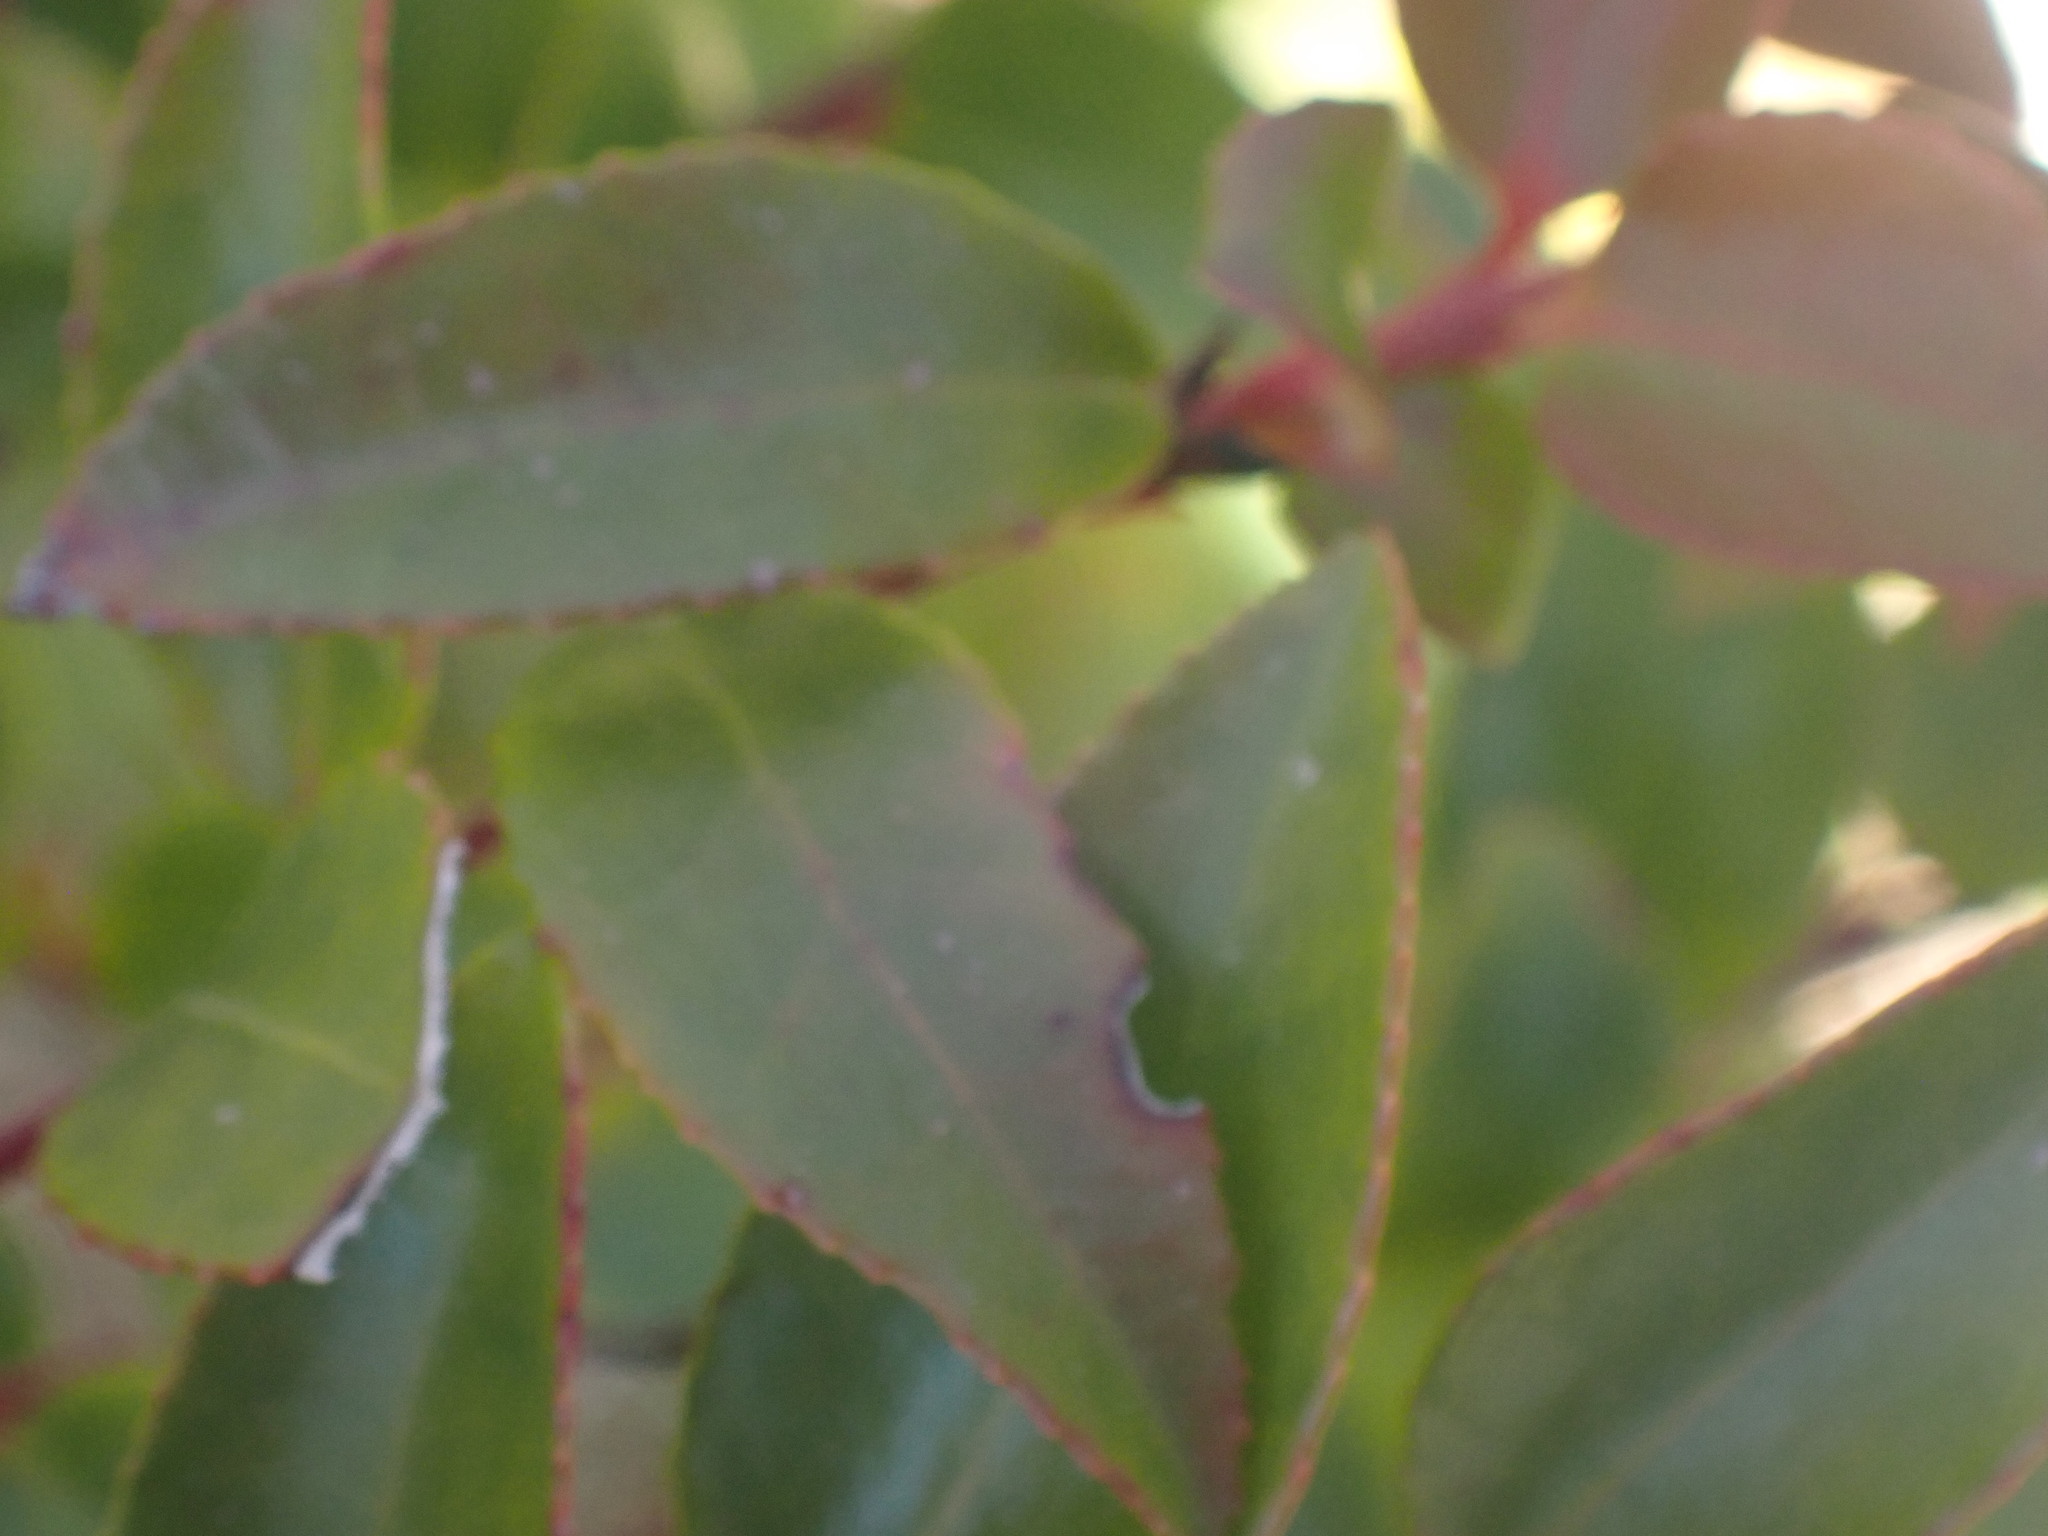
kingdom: Plantae
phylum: Tracheophyta
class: Magnoliopsida
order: Ericales
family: Ericaceae
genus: Vaccinium
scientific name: Vaccinium ovatum
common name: California-huckleberry
